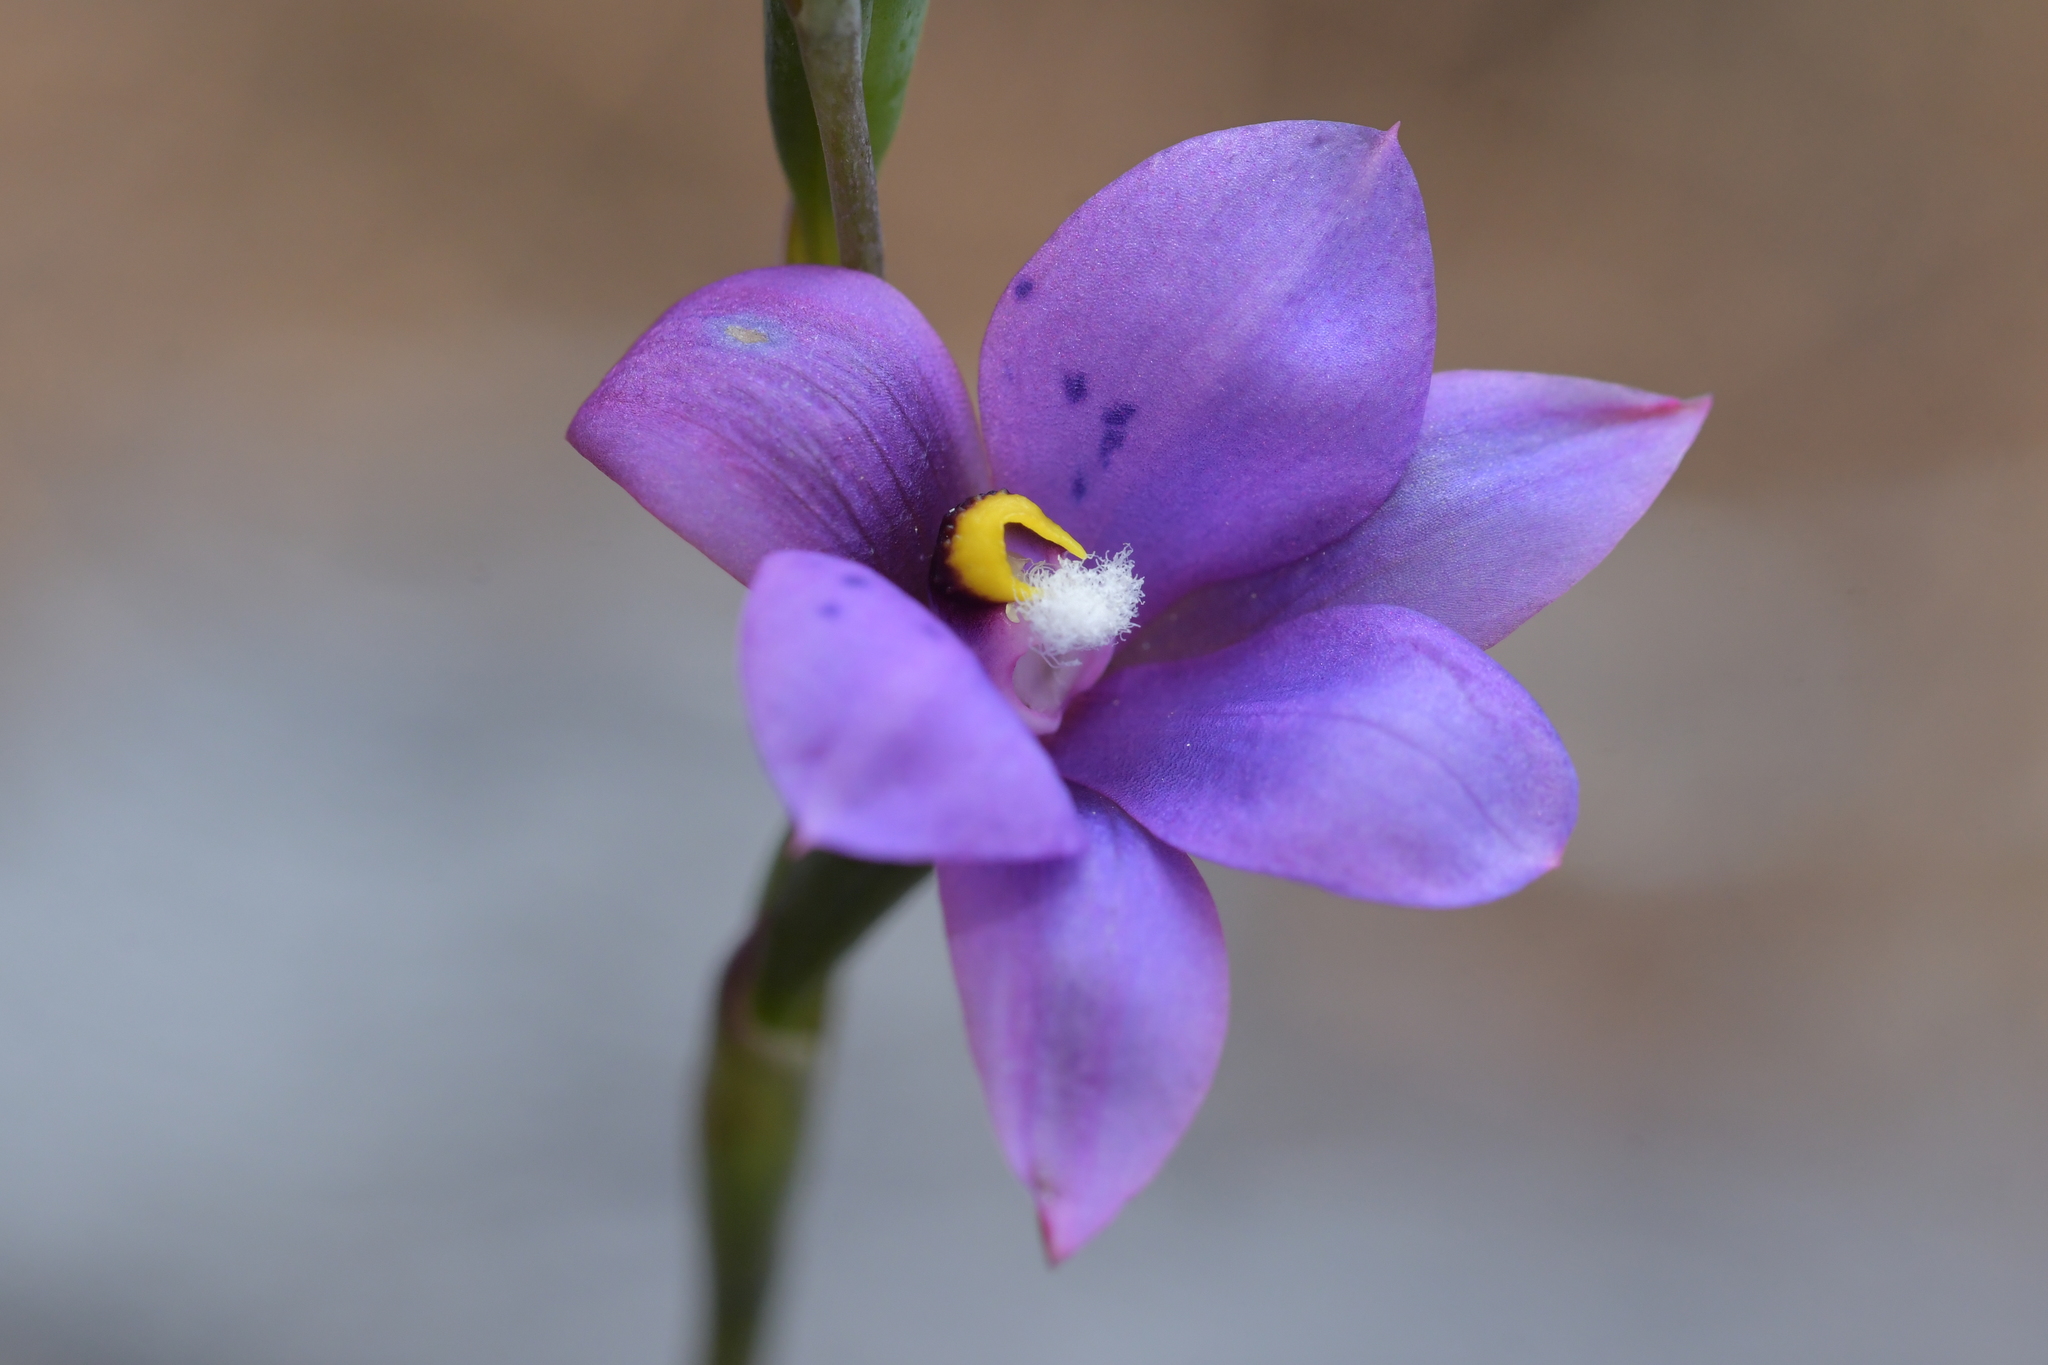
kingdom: Plantae
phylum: Tracheophyta
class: Liliopsida
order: Asparagales
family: Orchidaceae
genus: Thelymitra
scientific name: Thelymitra nervosa
